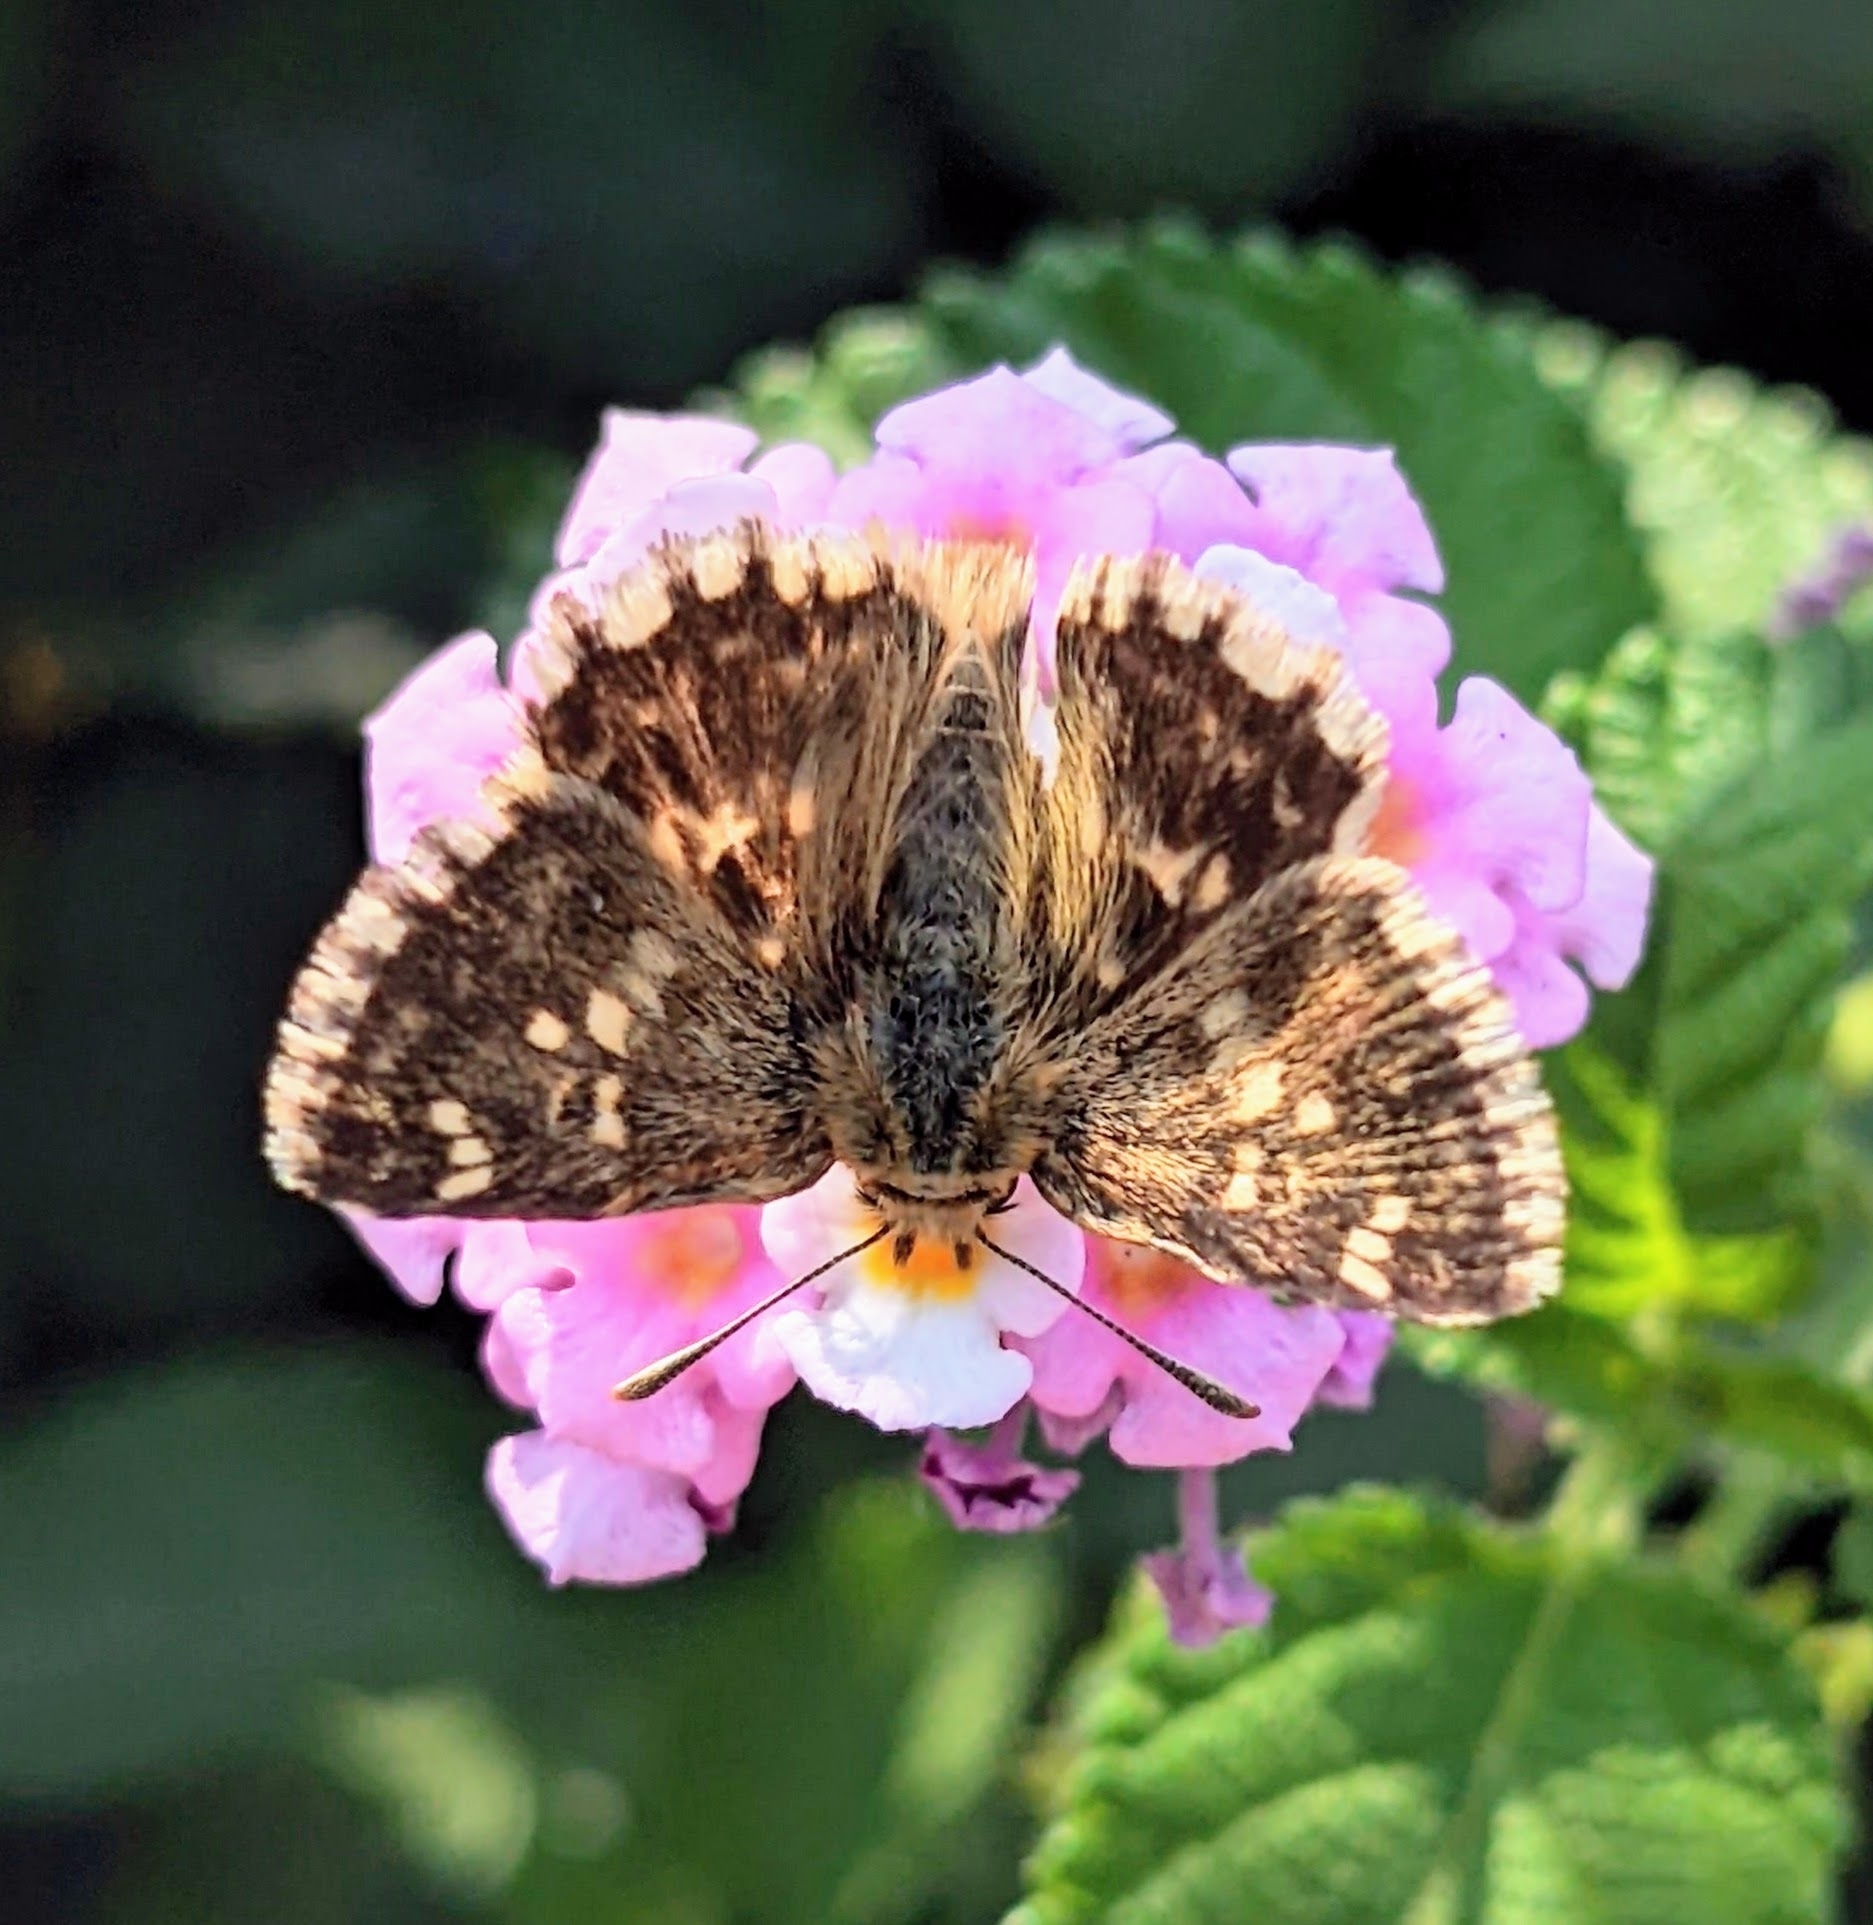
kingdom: Animalia
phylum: Arthropoda
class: Insecta
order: Lepidoptera
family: Hesperiidae
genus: Syrichtus
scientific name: Syrichtus proto
